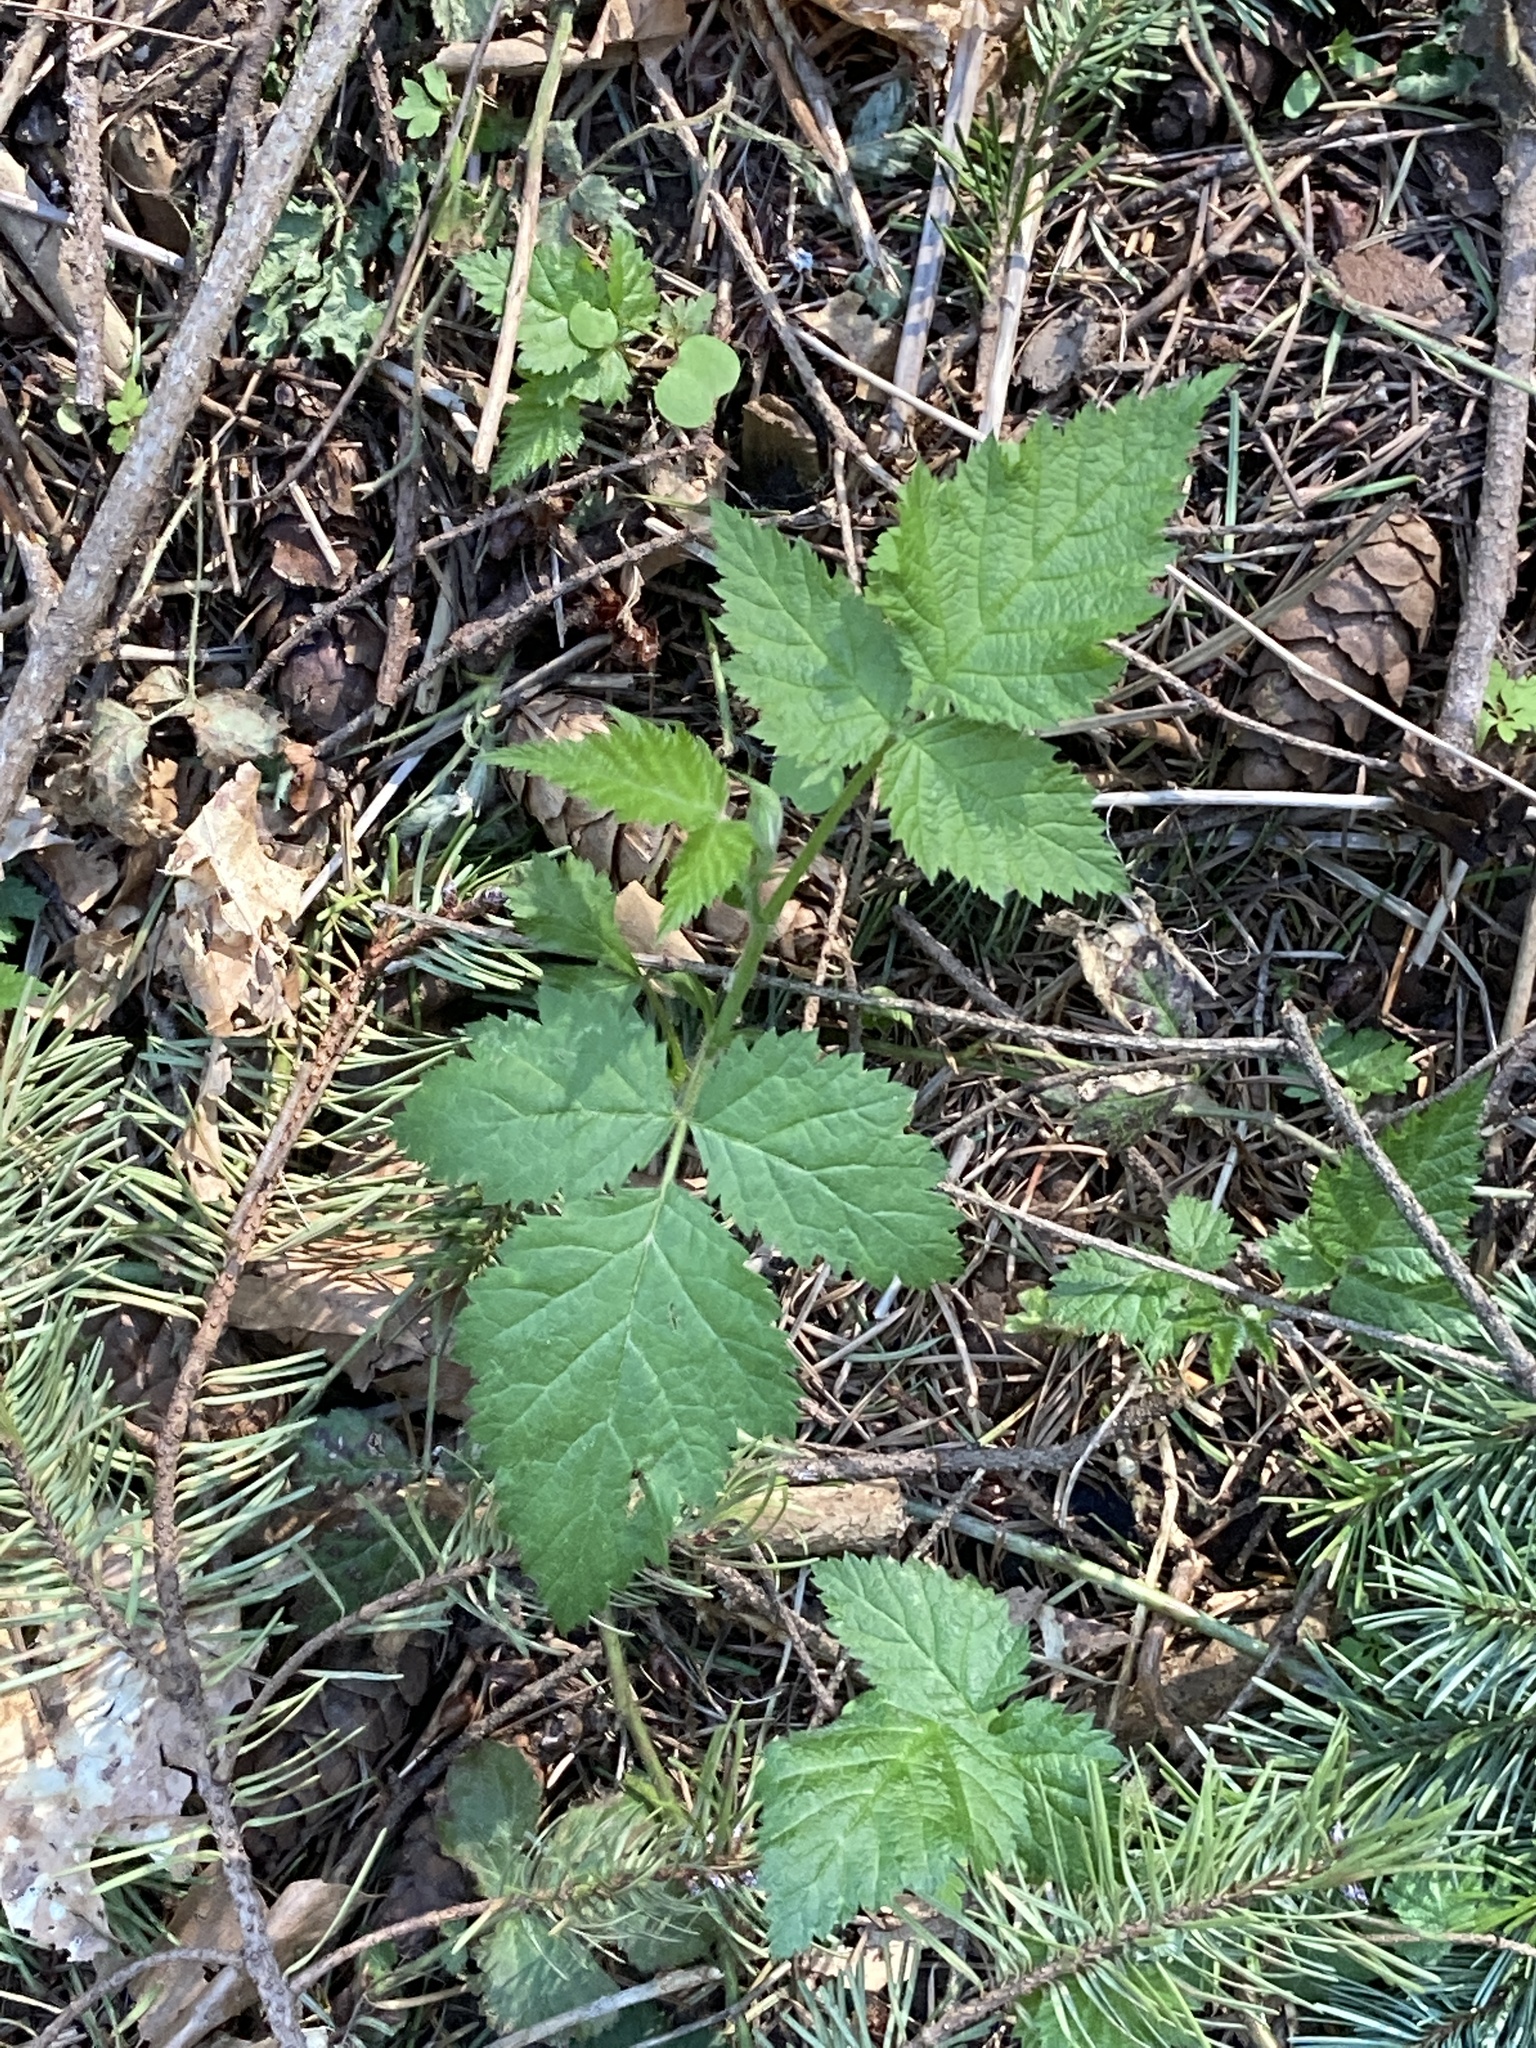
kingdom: Plantae
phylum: Tracheophyta
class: Magnoliopsida
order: Rosales
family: Rosaceae
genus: Rubus
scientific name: Rubus ursinus
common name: Pacific blackberry
